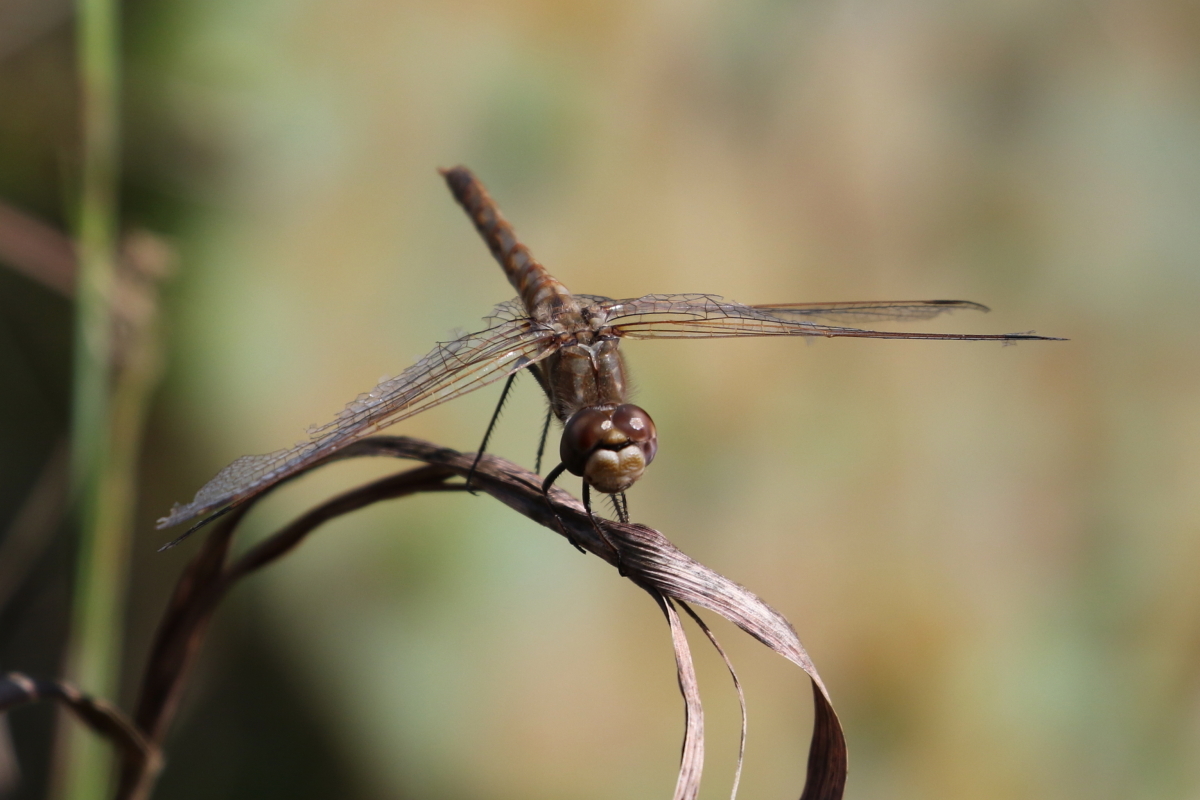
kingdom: Animalia
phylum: Arthropoda
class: Insecta
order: Odonata
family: Libellulidae
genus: Sympetrum
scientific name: Sympetrum corruptum
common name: Variegated meadowhawk
